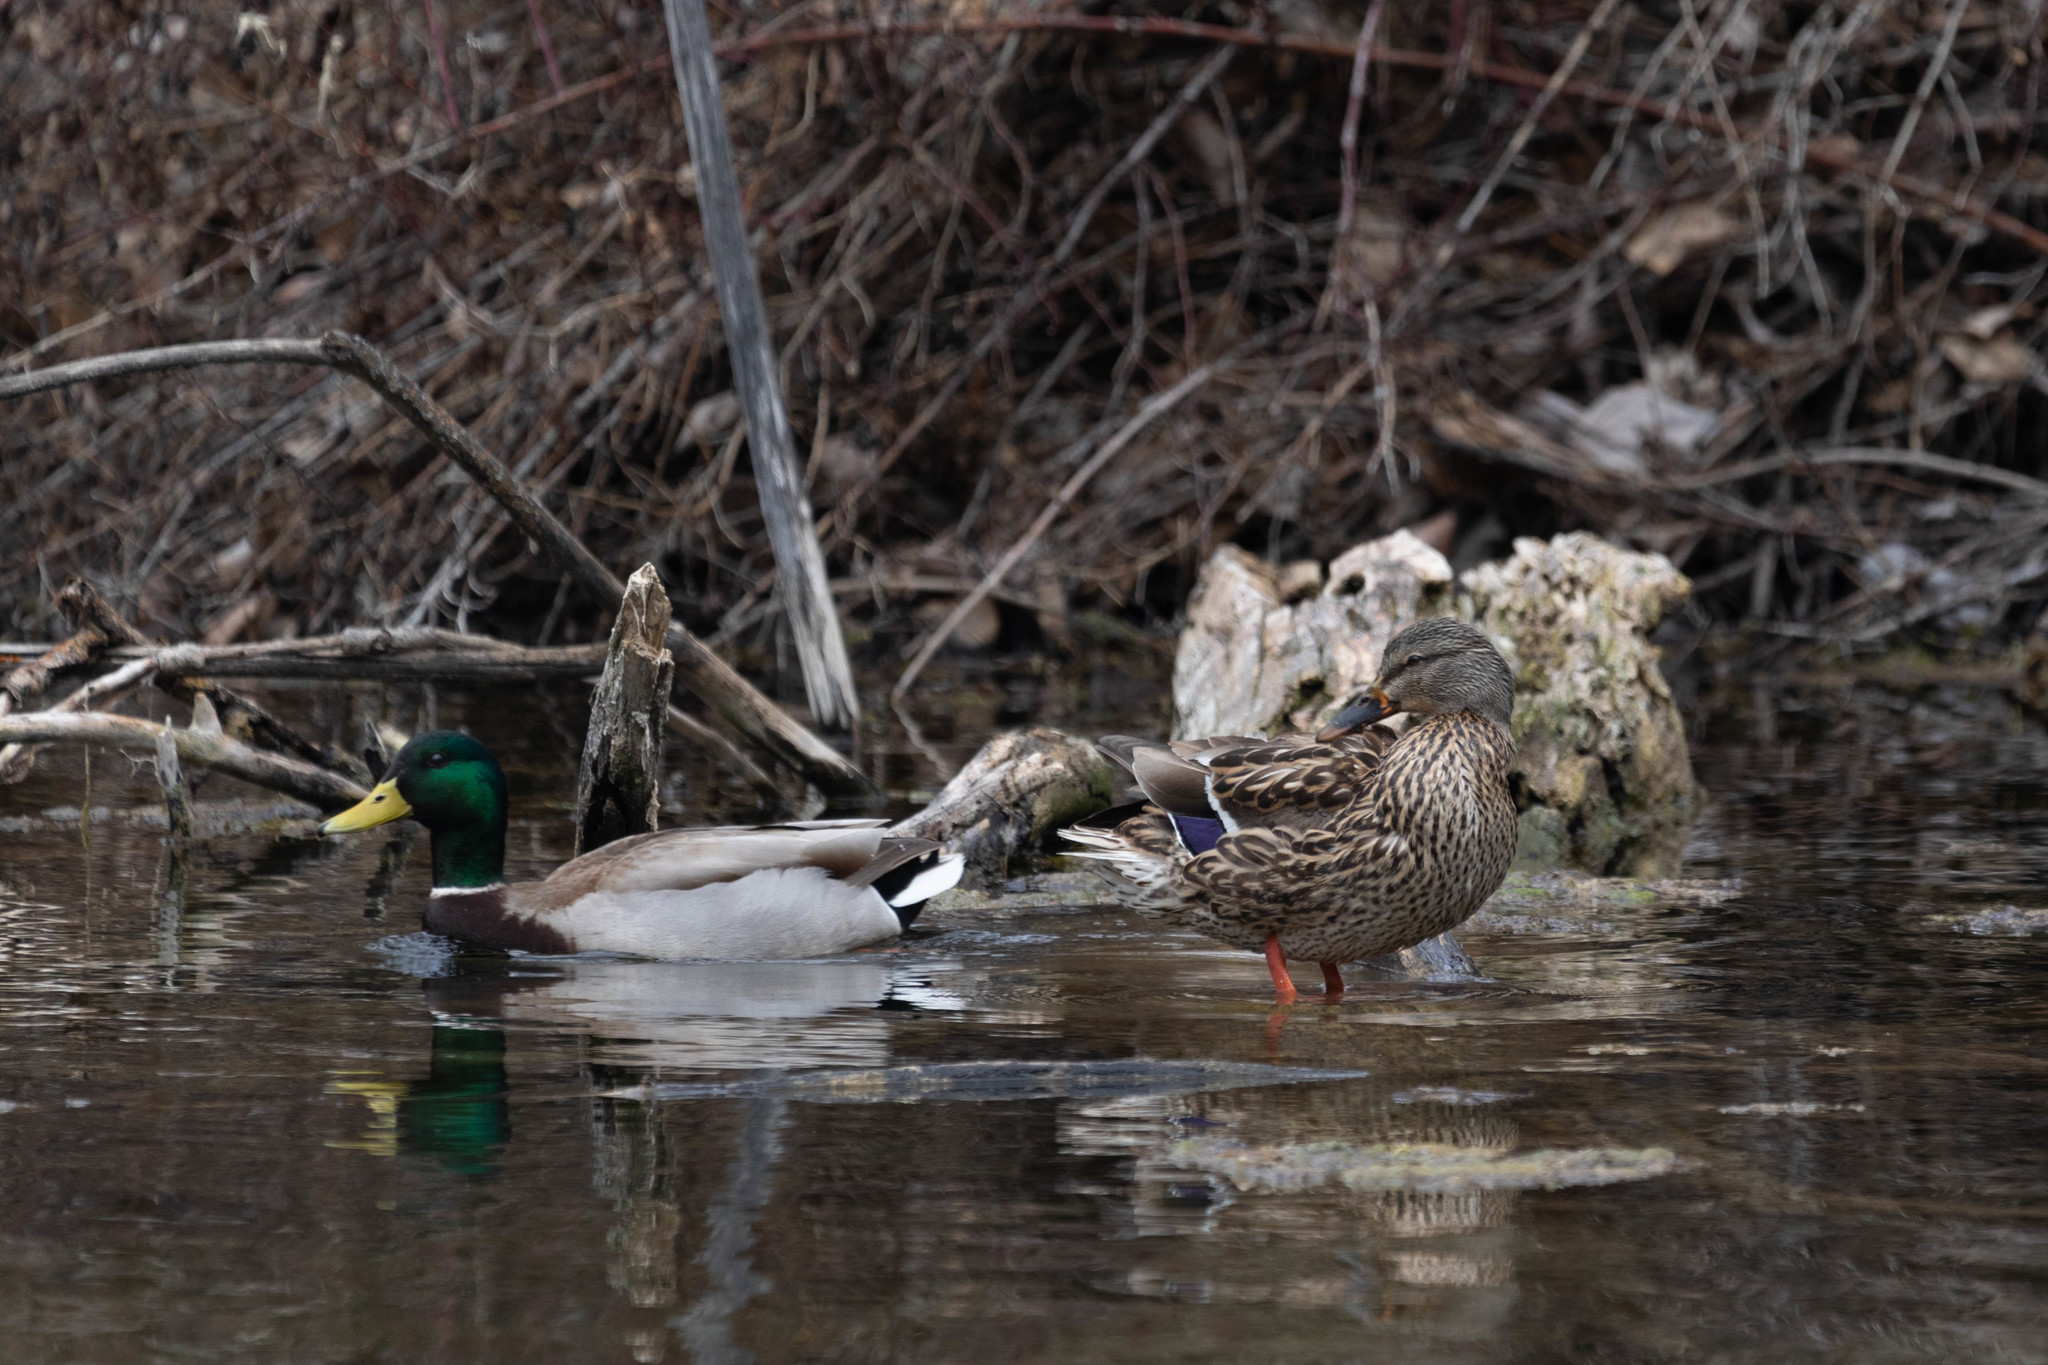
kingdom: Animalia
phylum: Chordata
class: Aves
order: Anseriformes
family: Anatidae
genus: Anas
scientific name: Anas platyrhynchos
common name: Mallard
